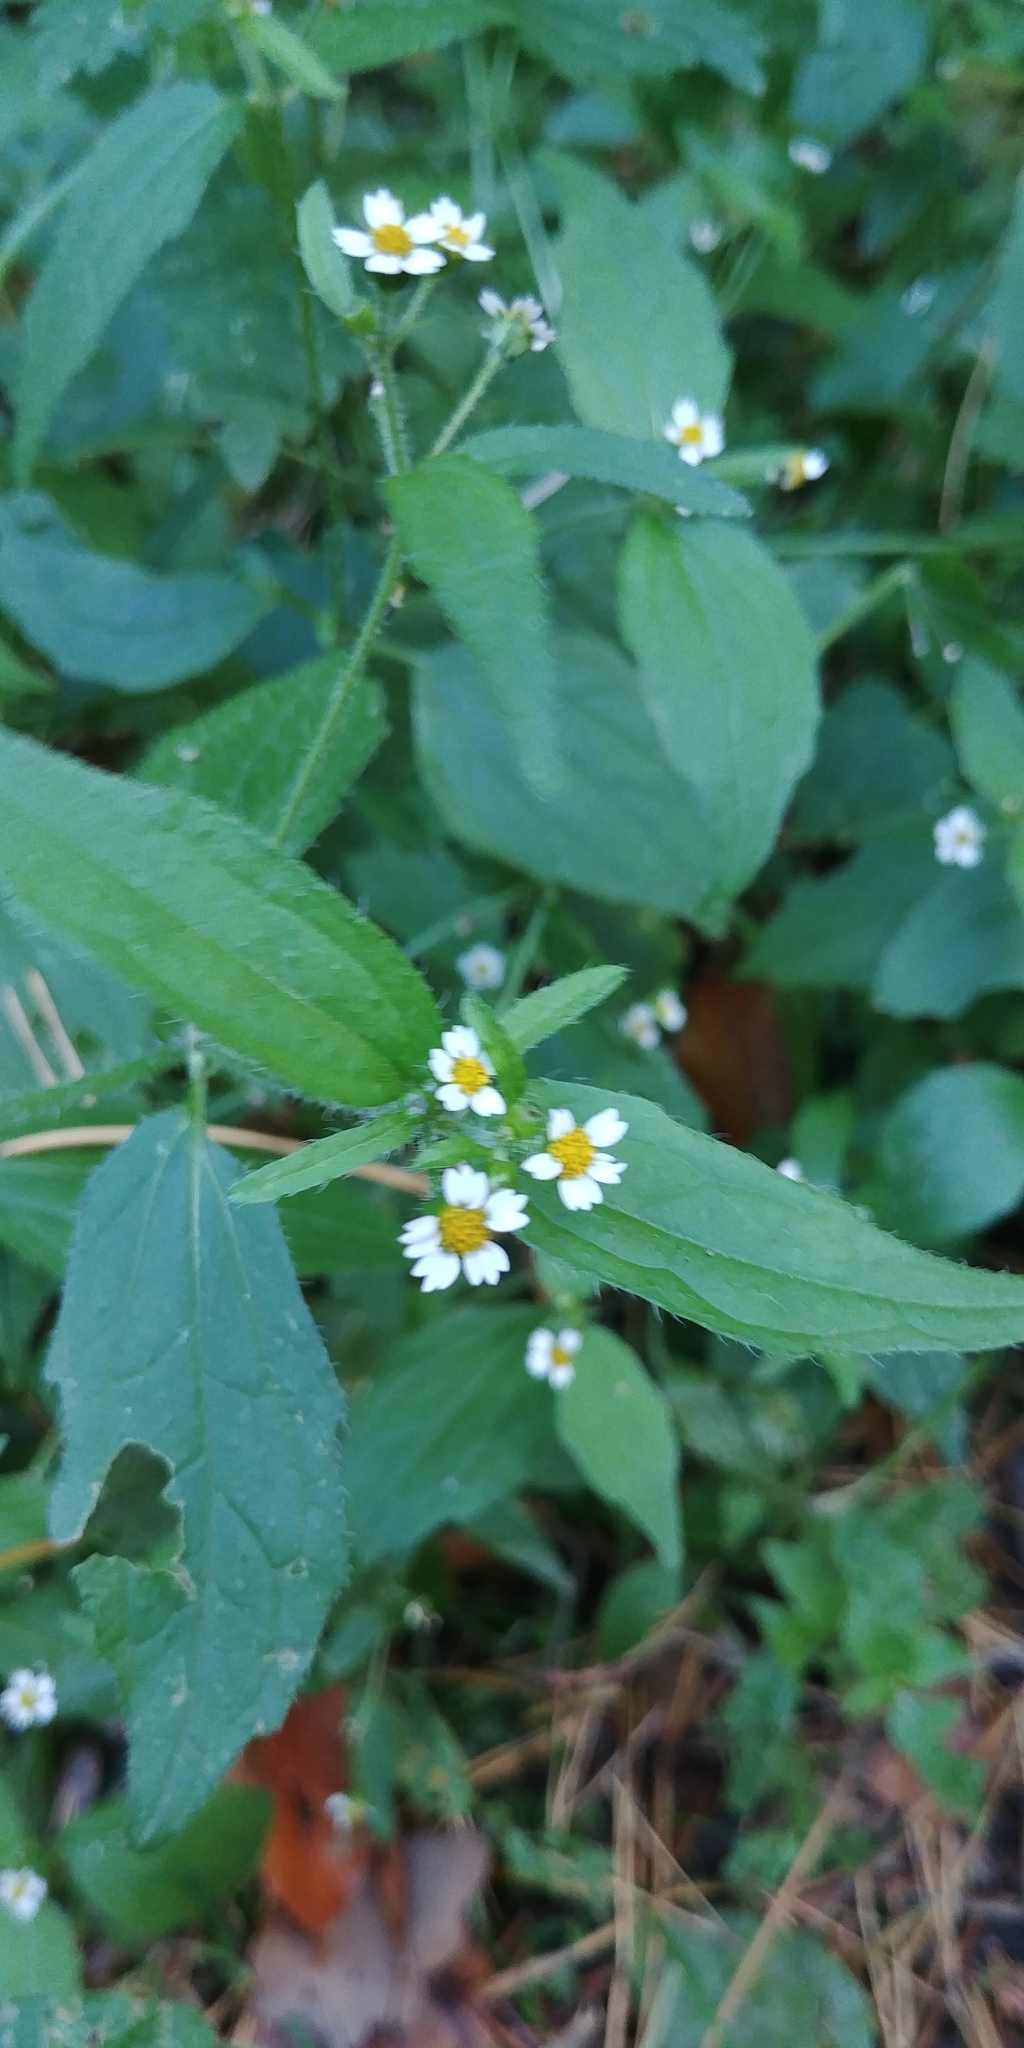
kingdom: Plantae
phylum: Tracheophyta
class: Magnoliopsida
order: Asterales
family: Asteraceae
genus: Galinsoga
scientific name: Galinsoga quadriradiata
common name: Shaggy soldier
